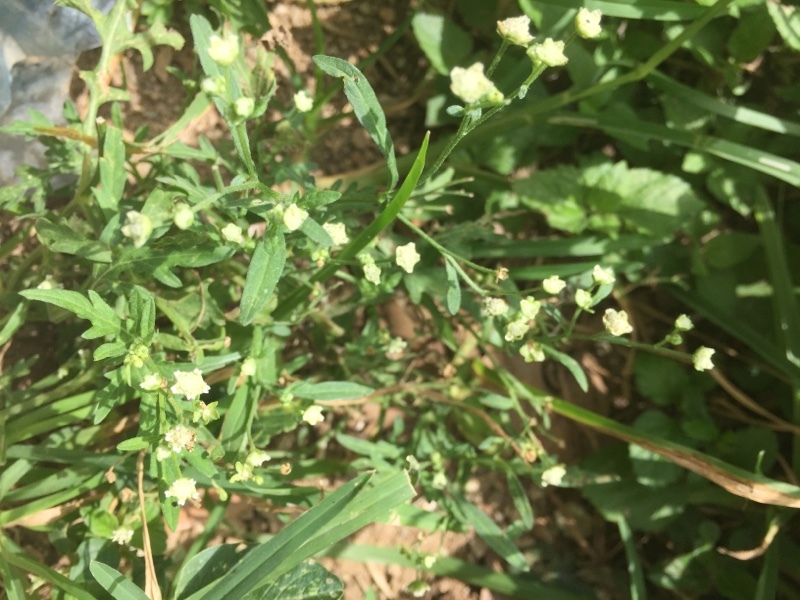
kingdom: Plantae
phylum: Tracheophyta
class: Magnoliopsida
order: Asterales
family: Asteraceae
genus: Parthenium
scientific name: Parthenium hysterophorus
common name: Santa maria feverfew
